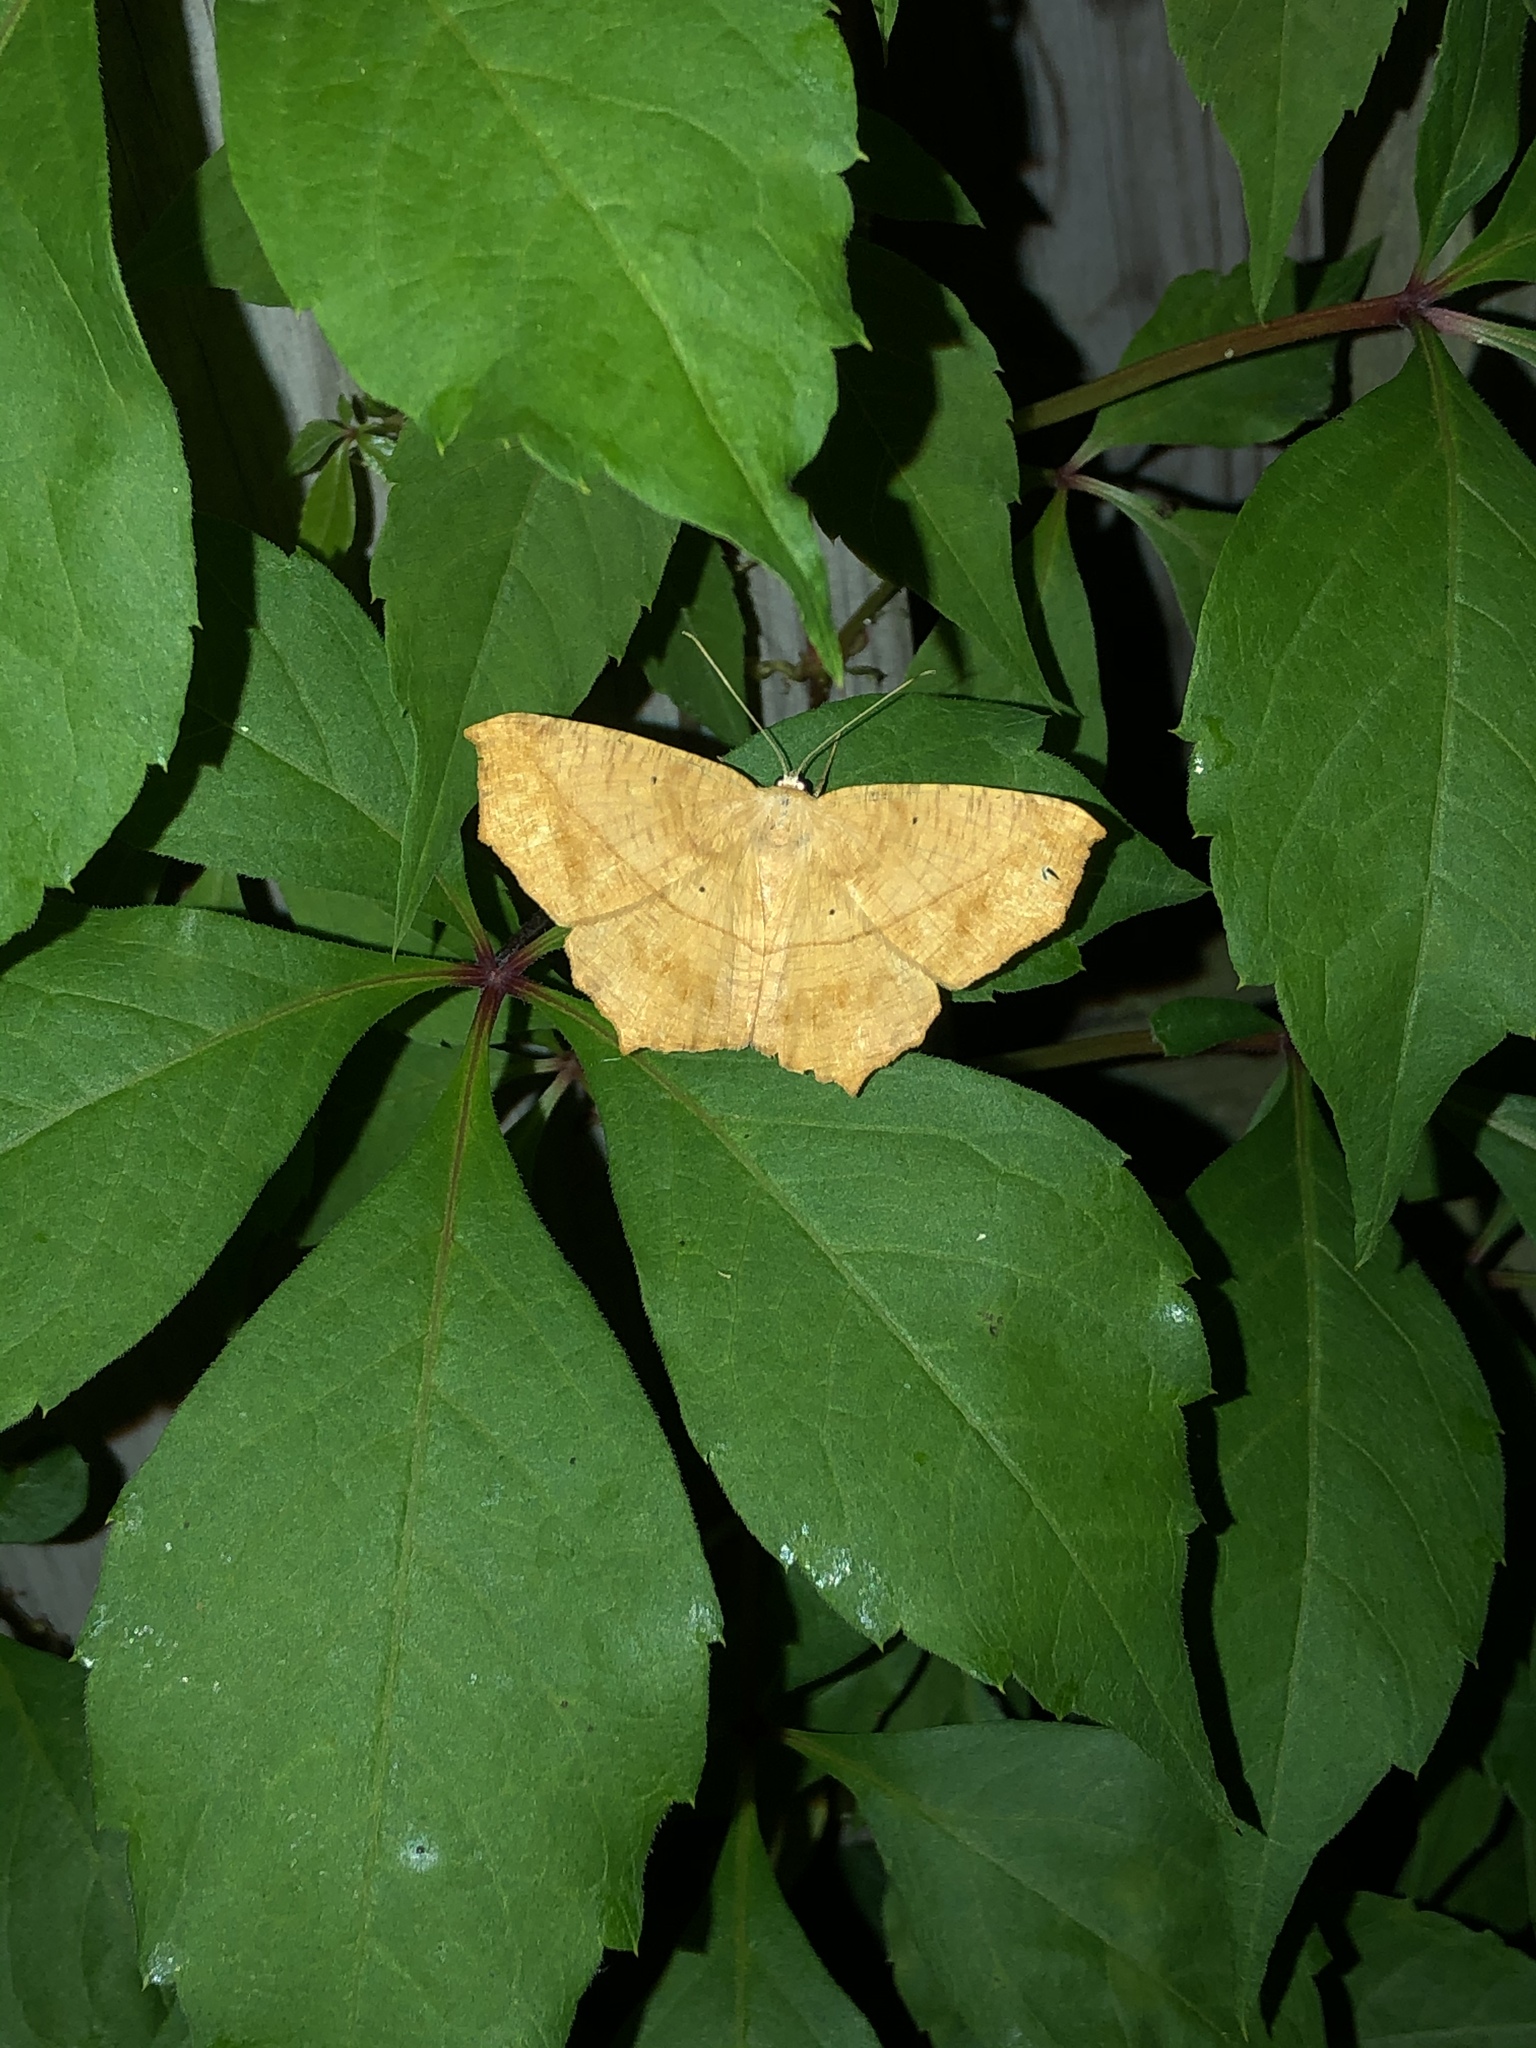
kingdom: Animalia
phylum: Arthropoda
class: Insecta
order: Lepidoptera
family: Geometridae
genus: Prochoerodes
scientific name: Prochoerodes lineola
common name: Large maple spanworm
